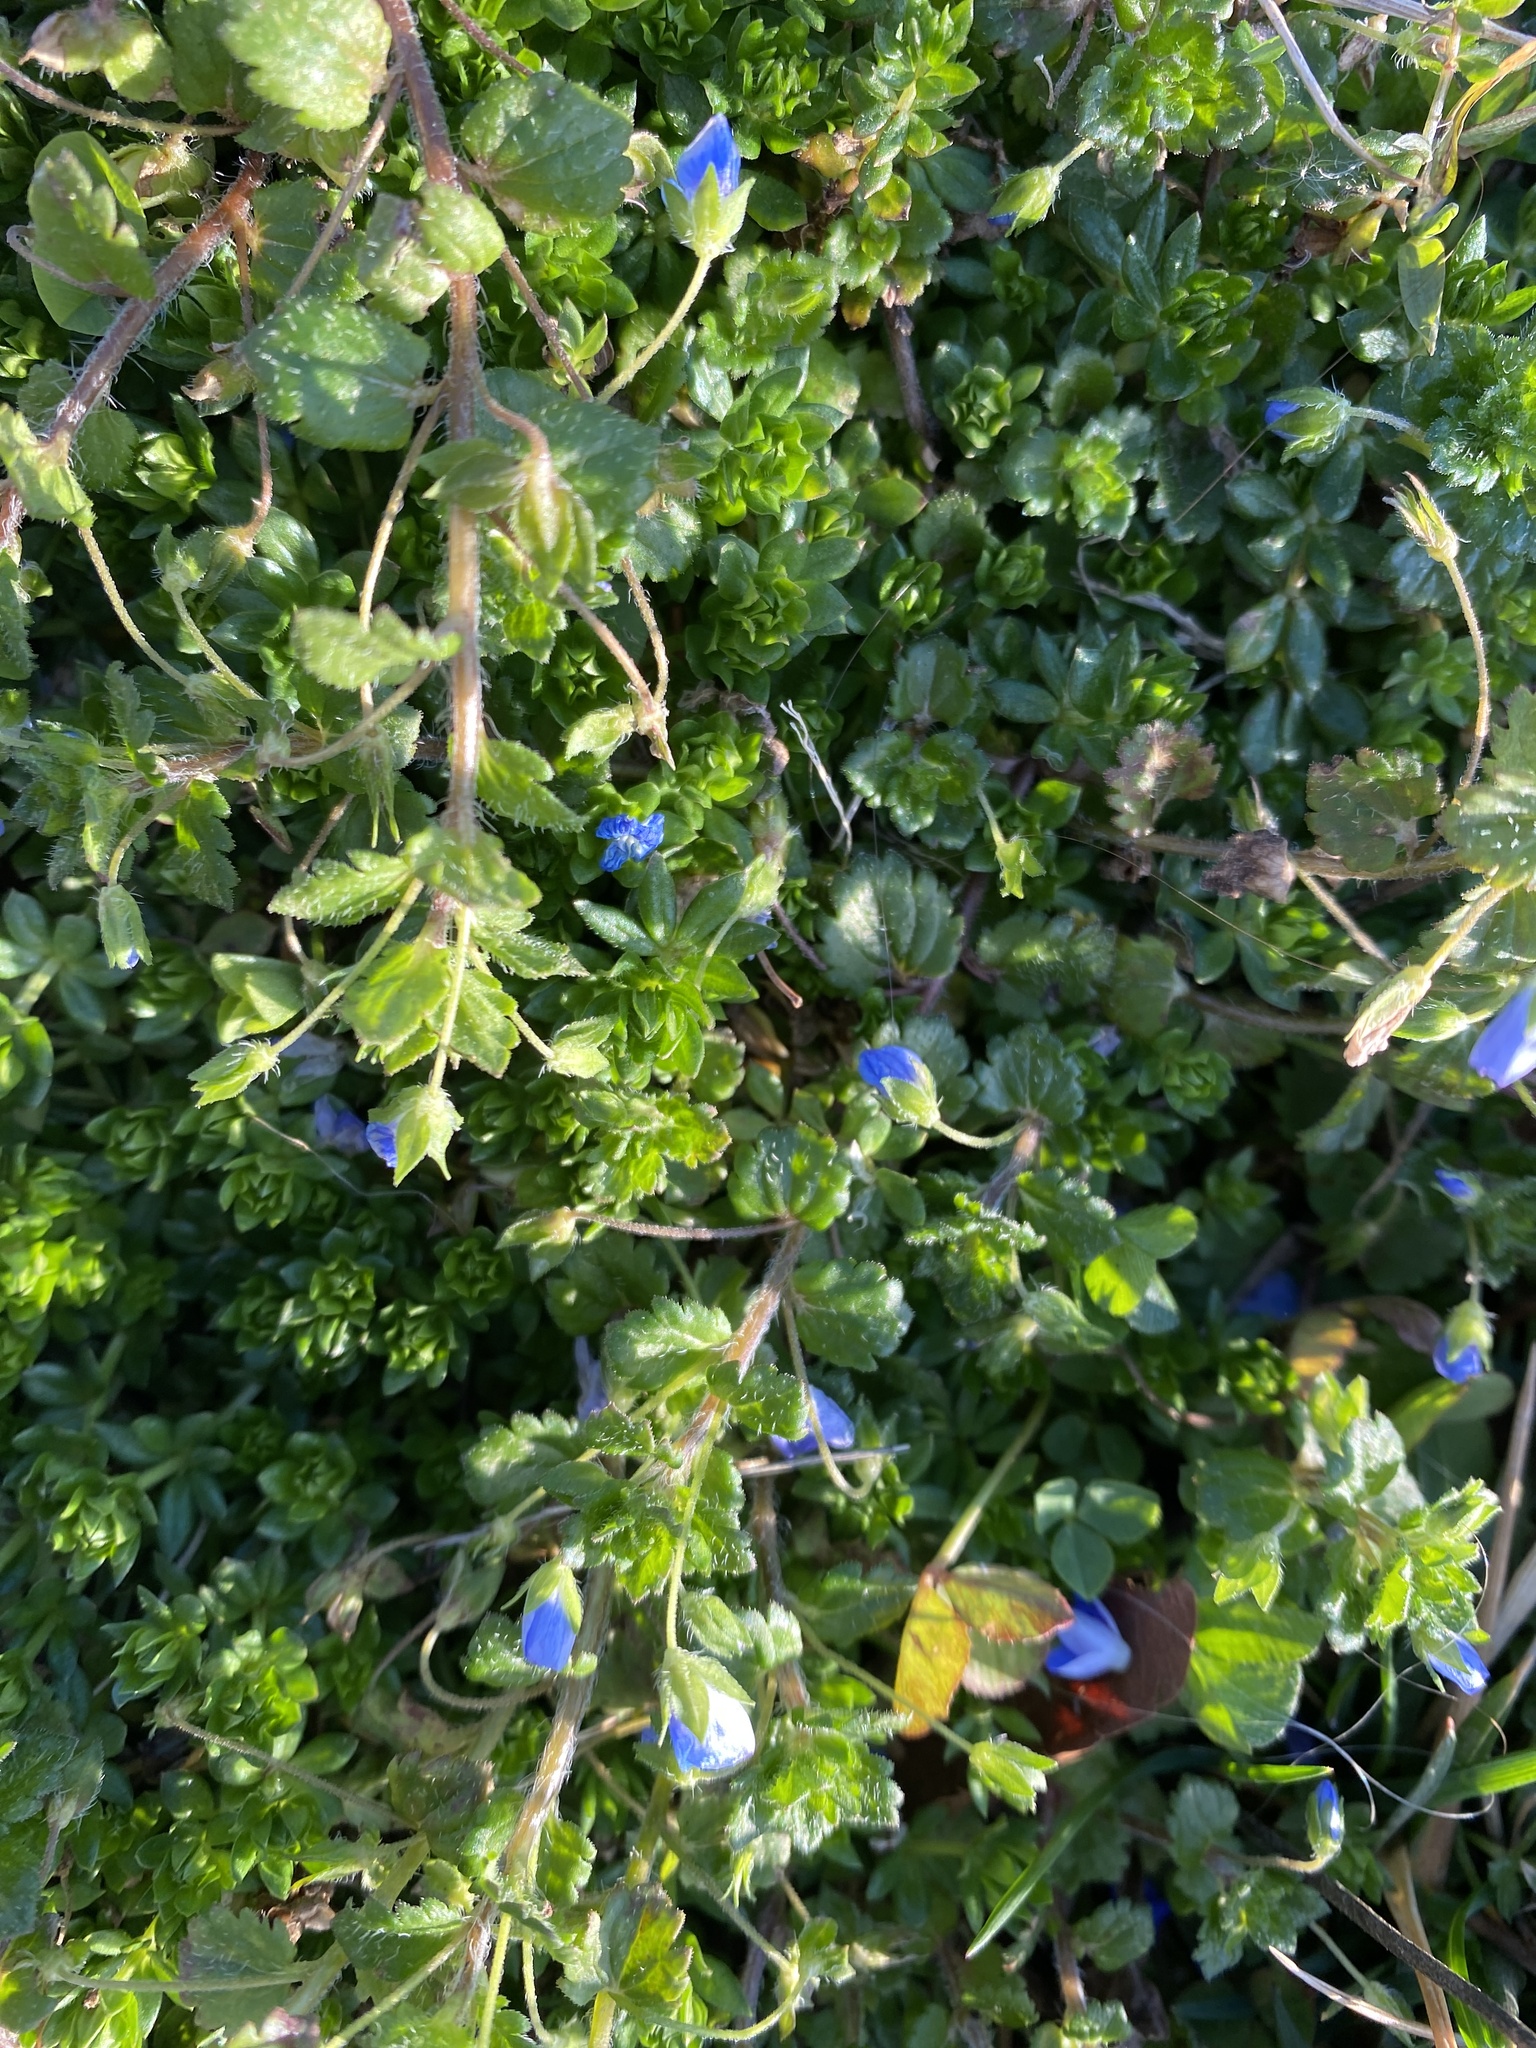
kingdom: Plantae
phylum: Tracheophyta
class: Magnoliopsida
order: Lamiales
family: Plantaginaceae
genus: Veronica
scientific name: Veronica persica
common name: Common field-speedwell
